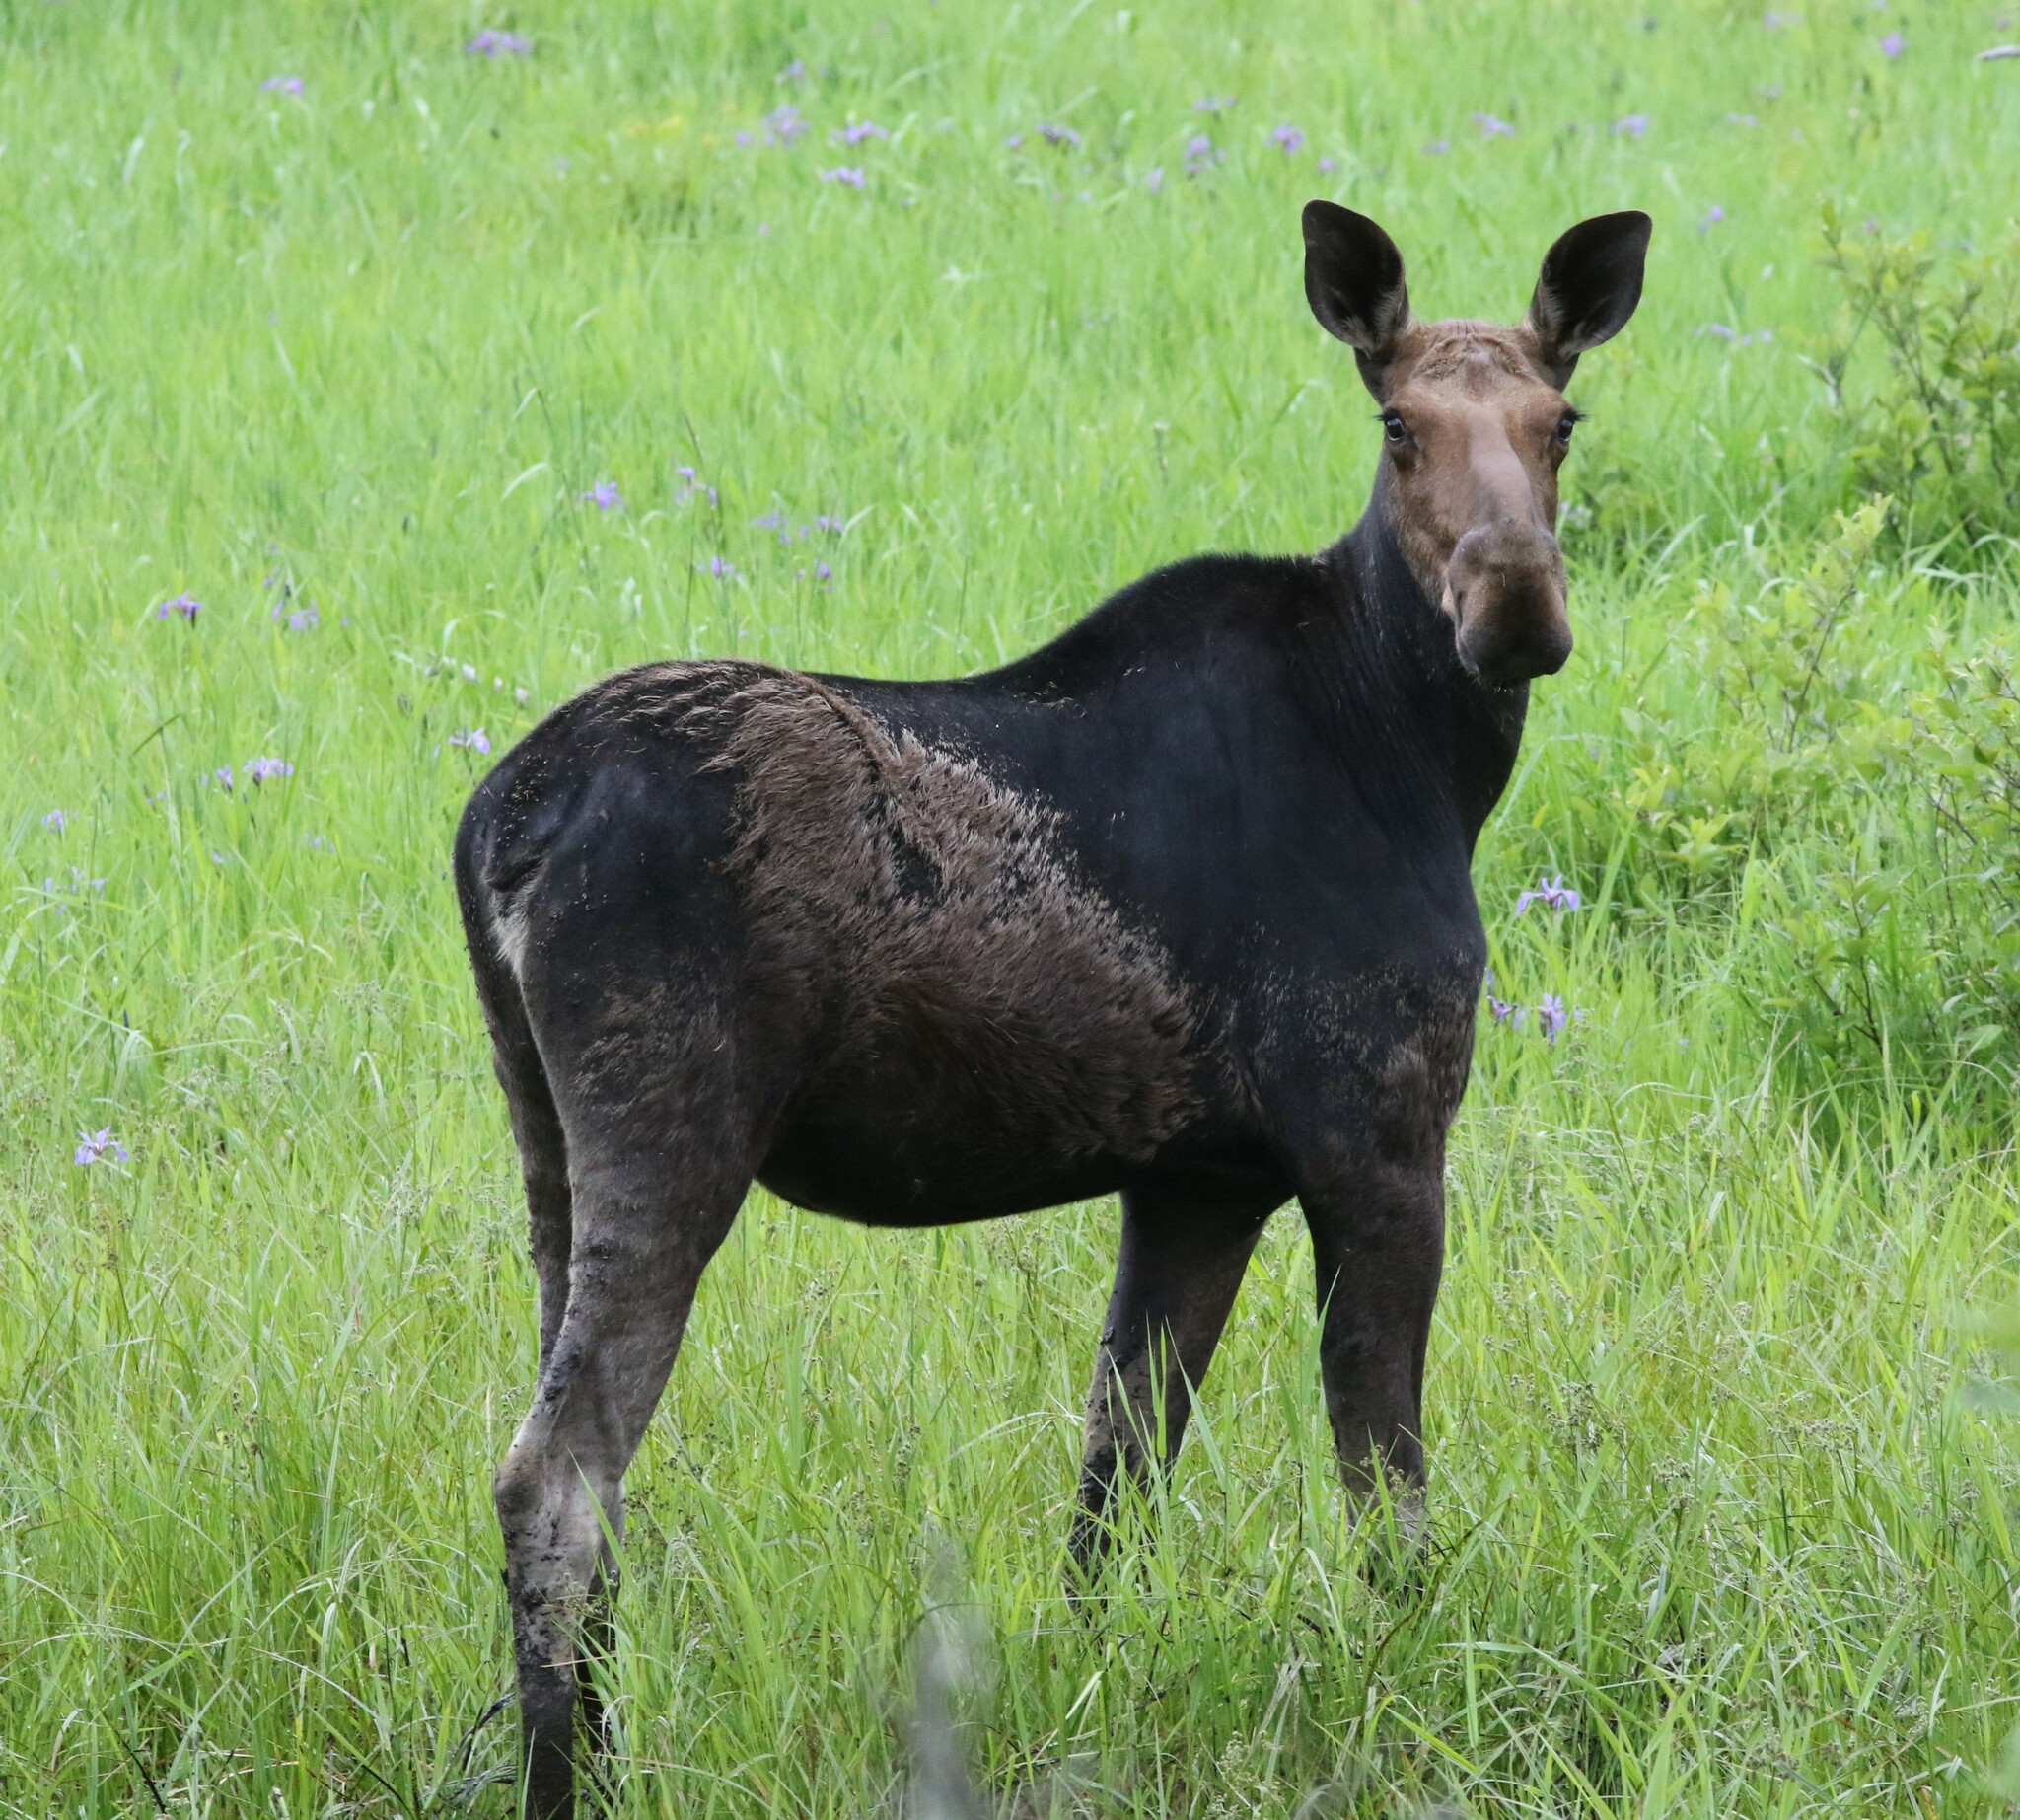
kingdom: Animalia
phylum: Chordata
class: Mammalia
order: Artiodactyla
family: Cervidae
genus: Alces
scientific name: Alces alces
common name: Moose
